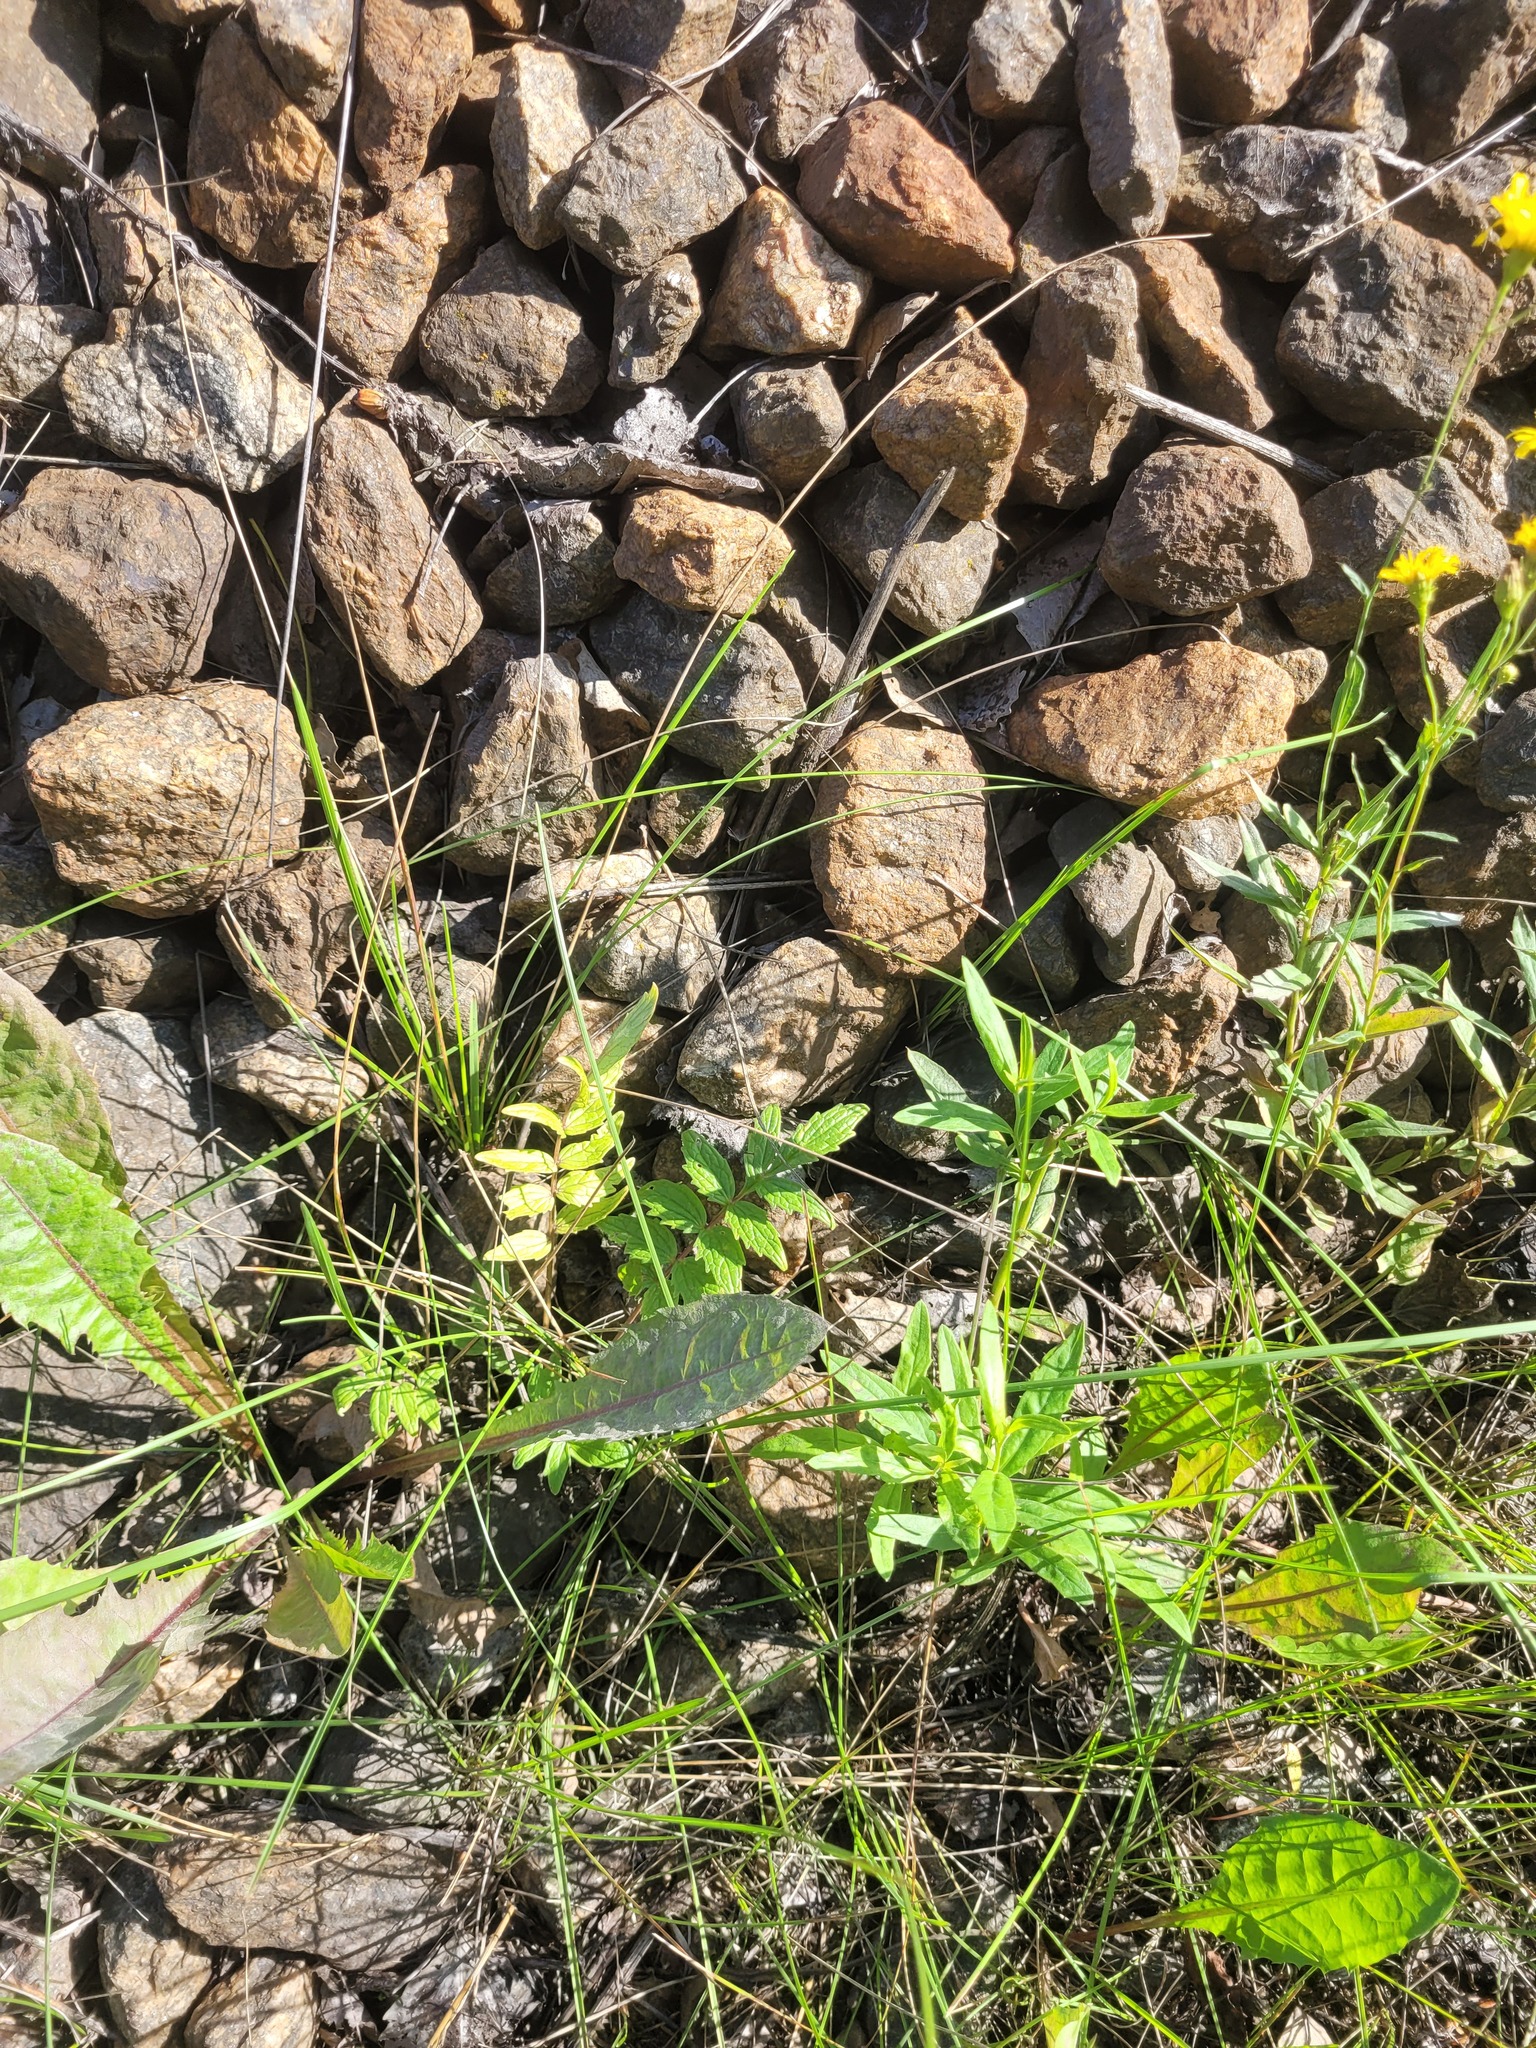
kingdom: Plantae
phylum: Tracheophyta
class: Magnoliopsida
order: Dipsacales
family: Caprifoliaceae
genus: Valeriana
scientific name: Valeriana officinalis
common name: Common valerian
